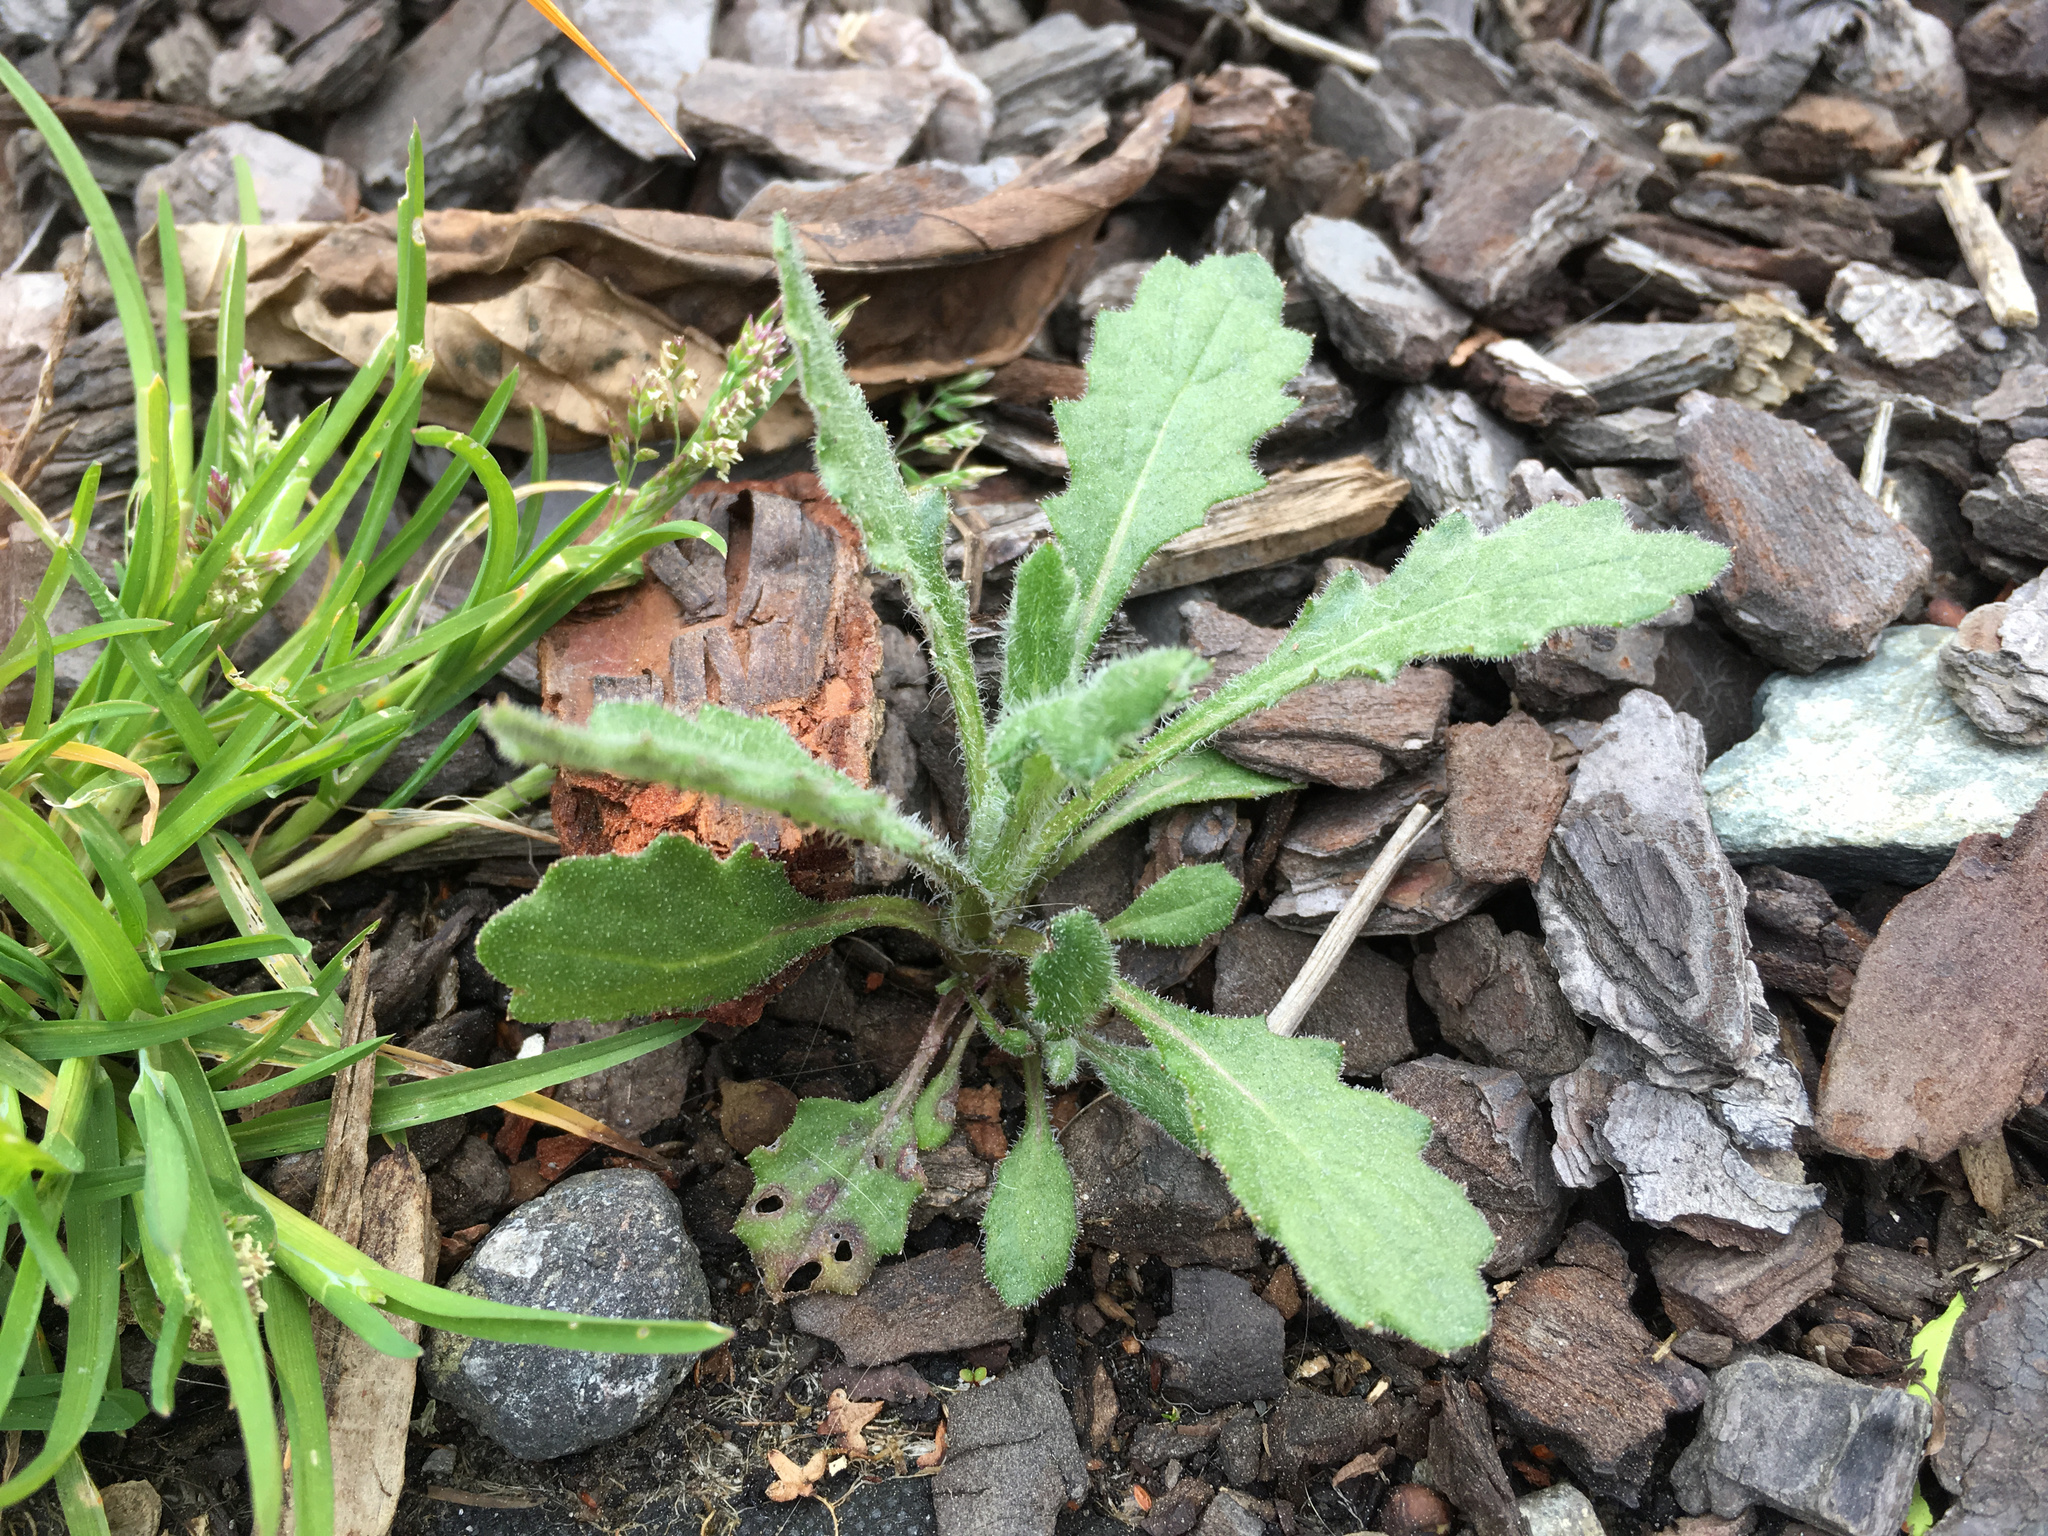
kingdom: Plantae
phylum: Tracheophyta
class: Magnoliopsida
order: Asterales
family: Asteraceae
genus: Senecio
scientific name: Senecio glomeratus
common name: Cutleaf burnweed
